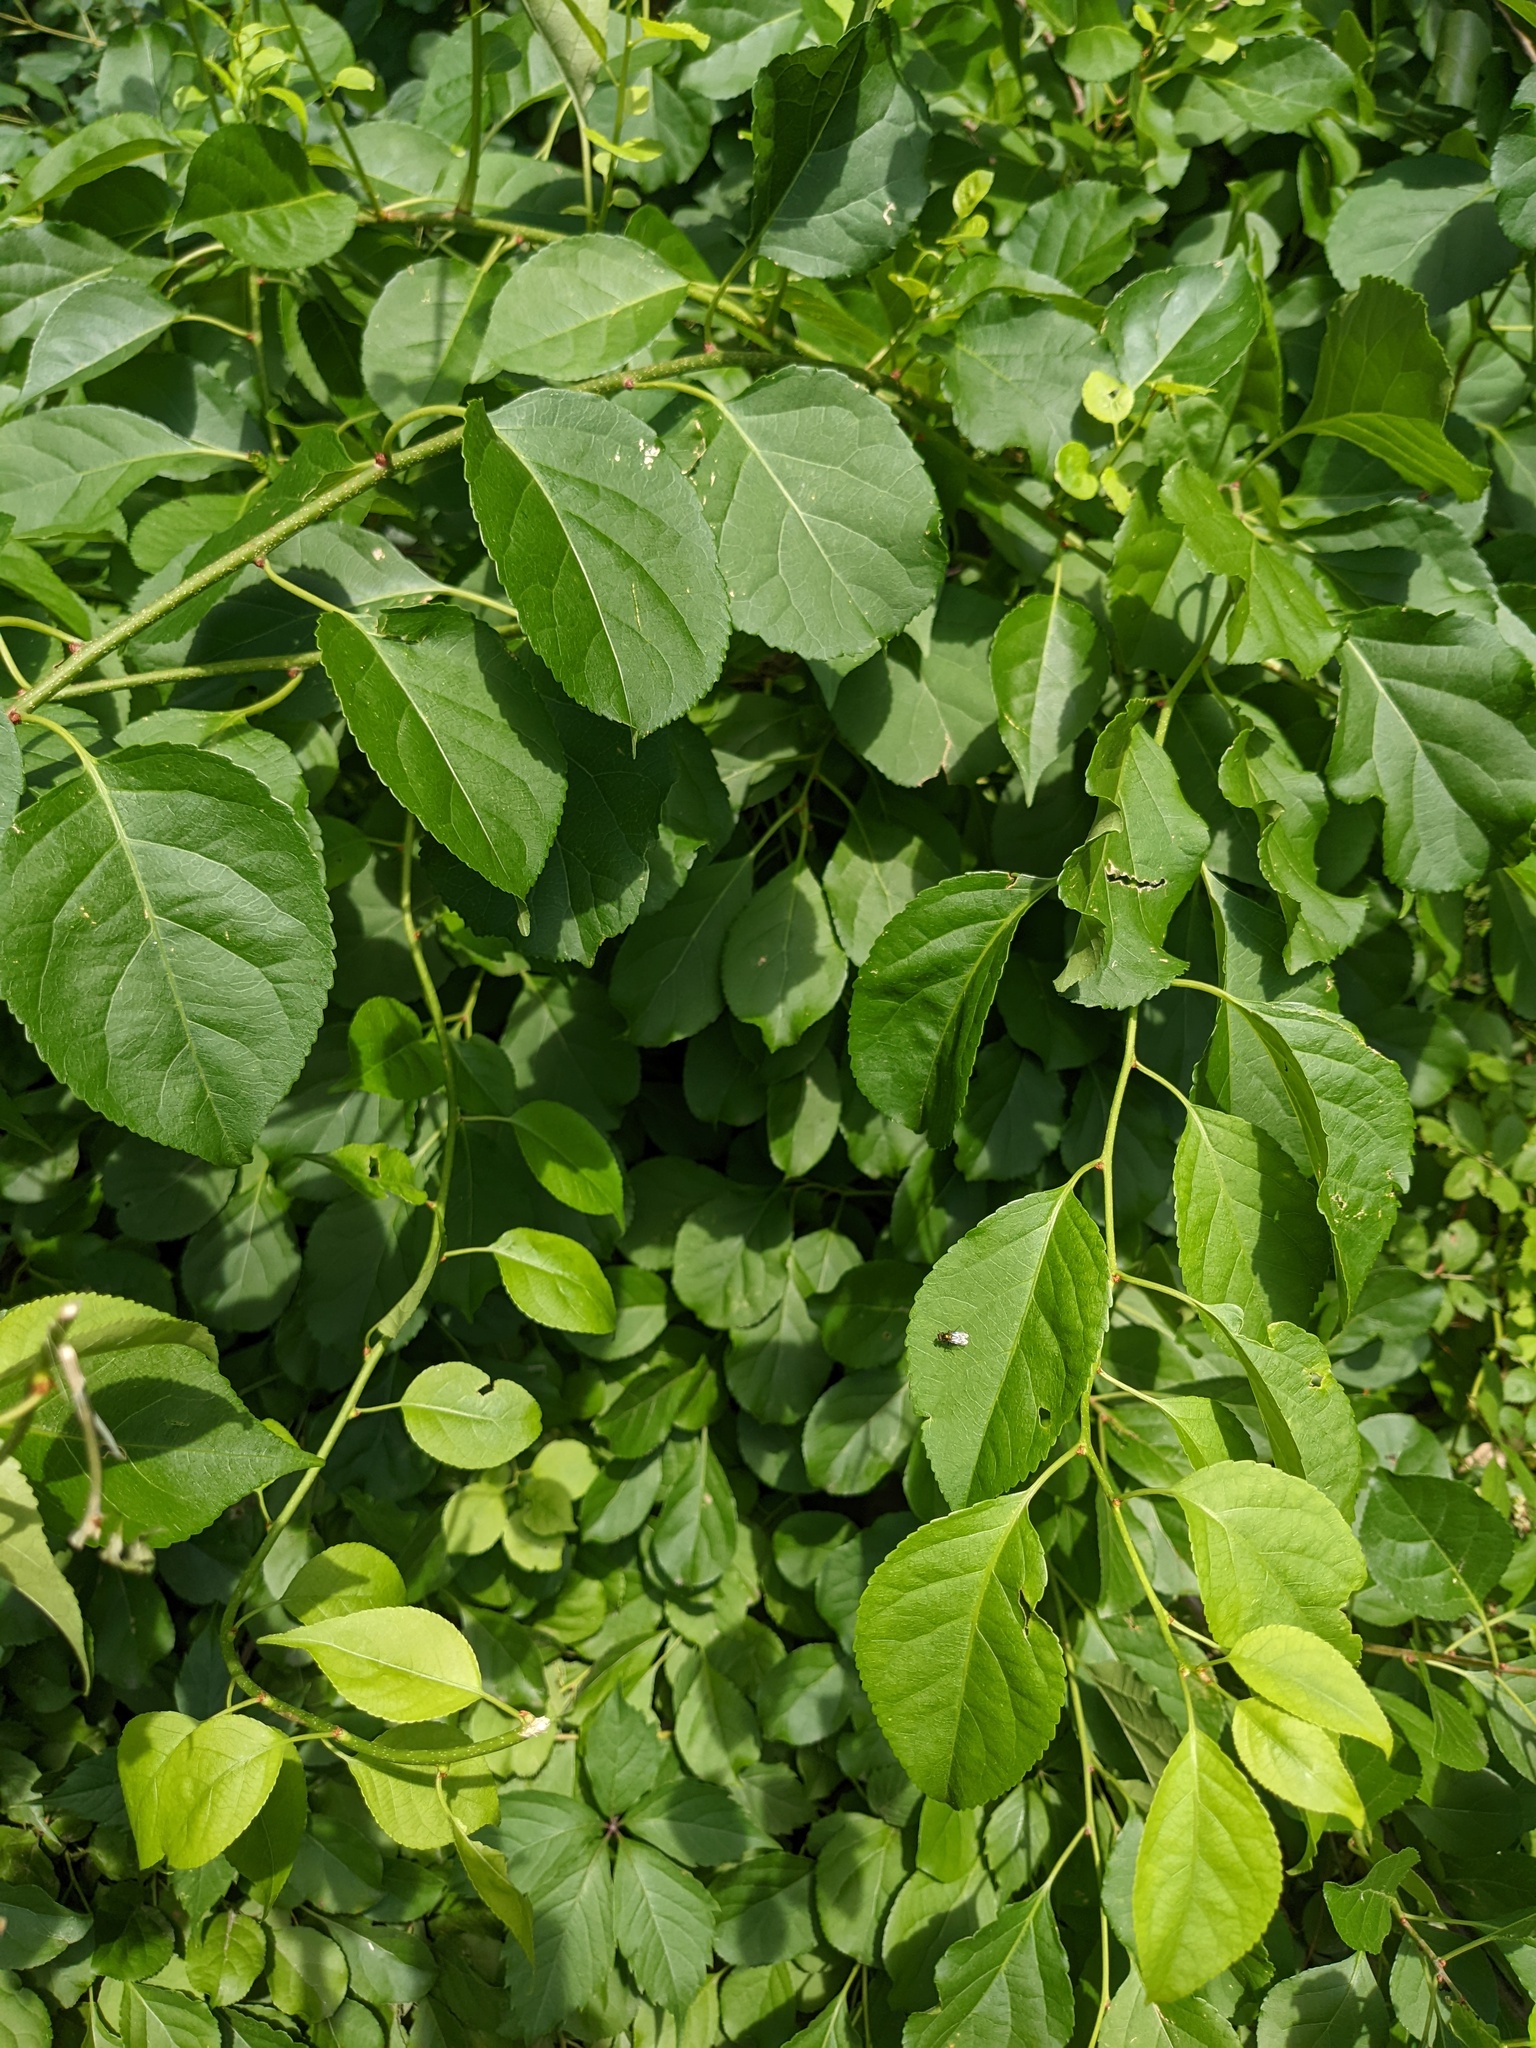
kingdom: Plantae
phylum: Tracheophyta
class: Magnoliopsida
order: Celastrales
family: Celastraceae
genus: Celastrus
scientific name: Celastrus orbiculatus
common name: Oriental bittersweet
